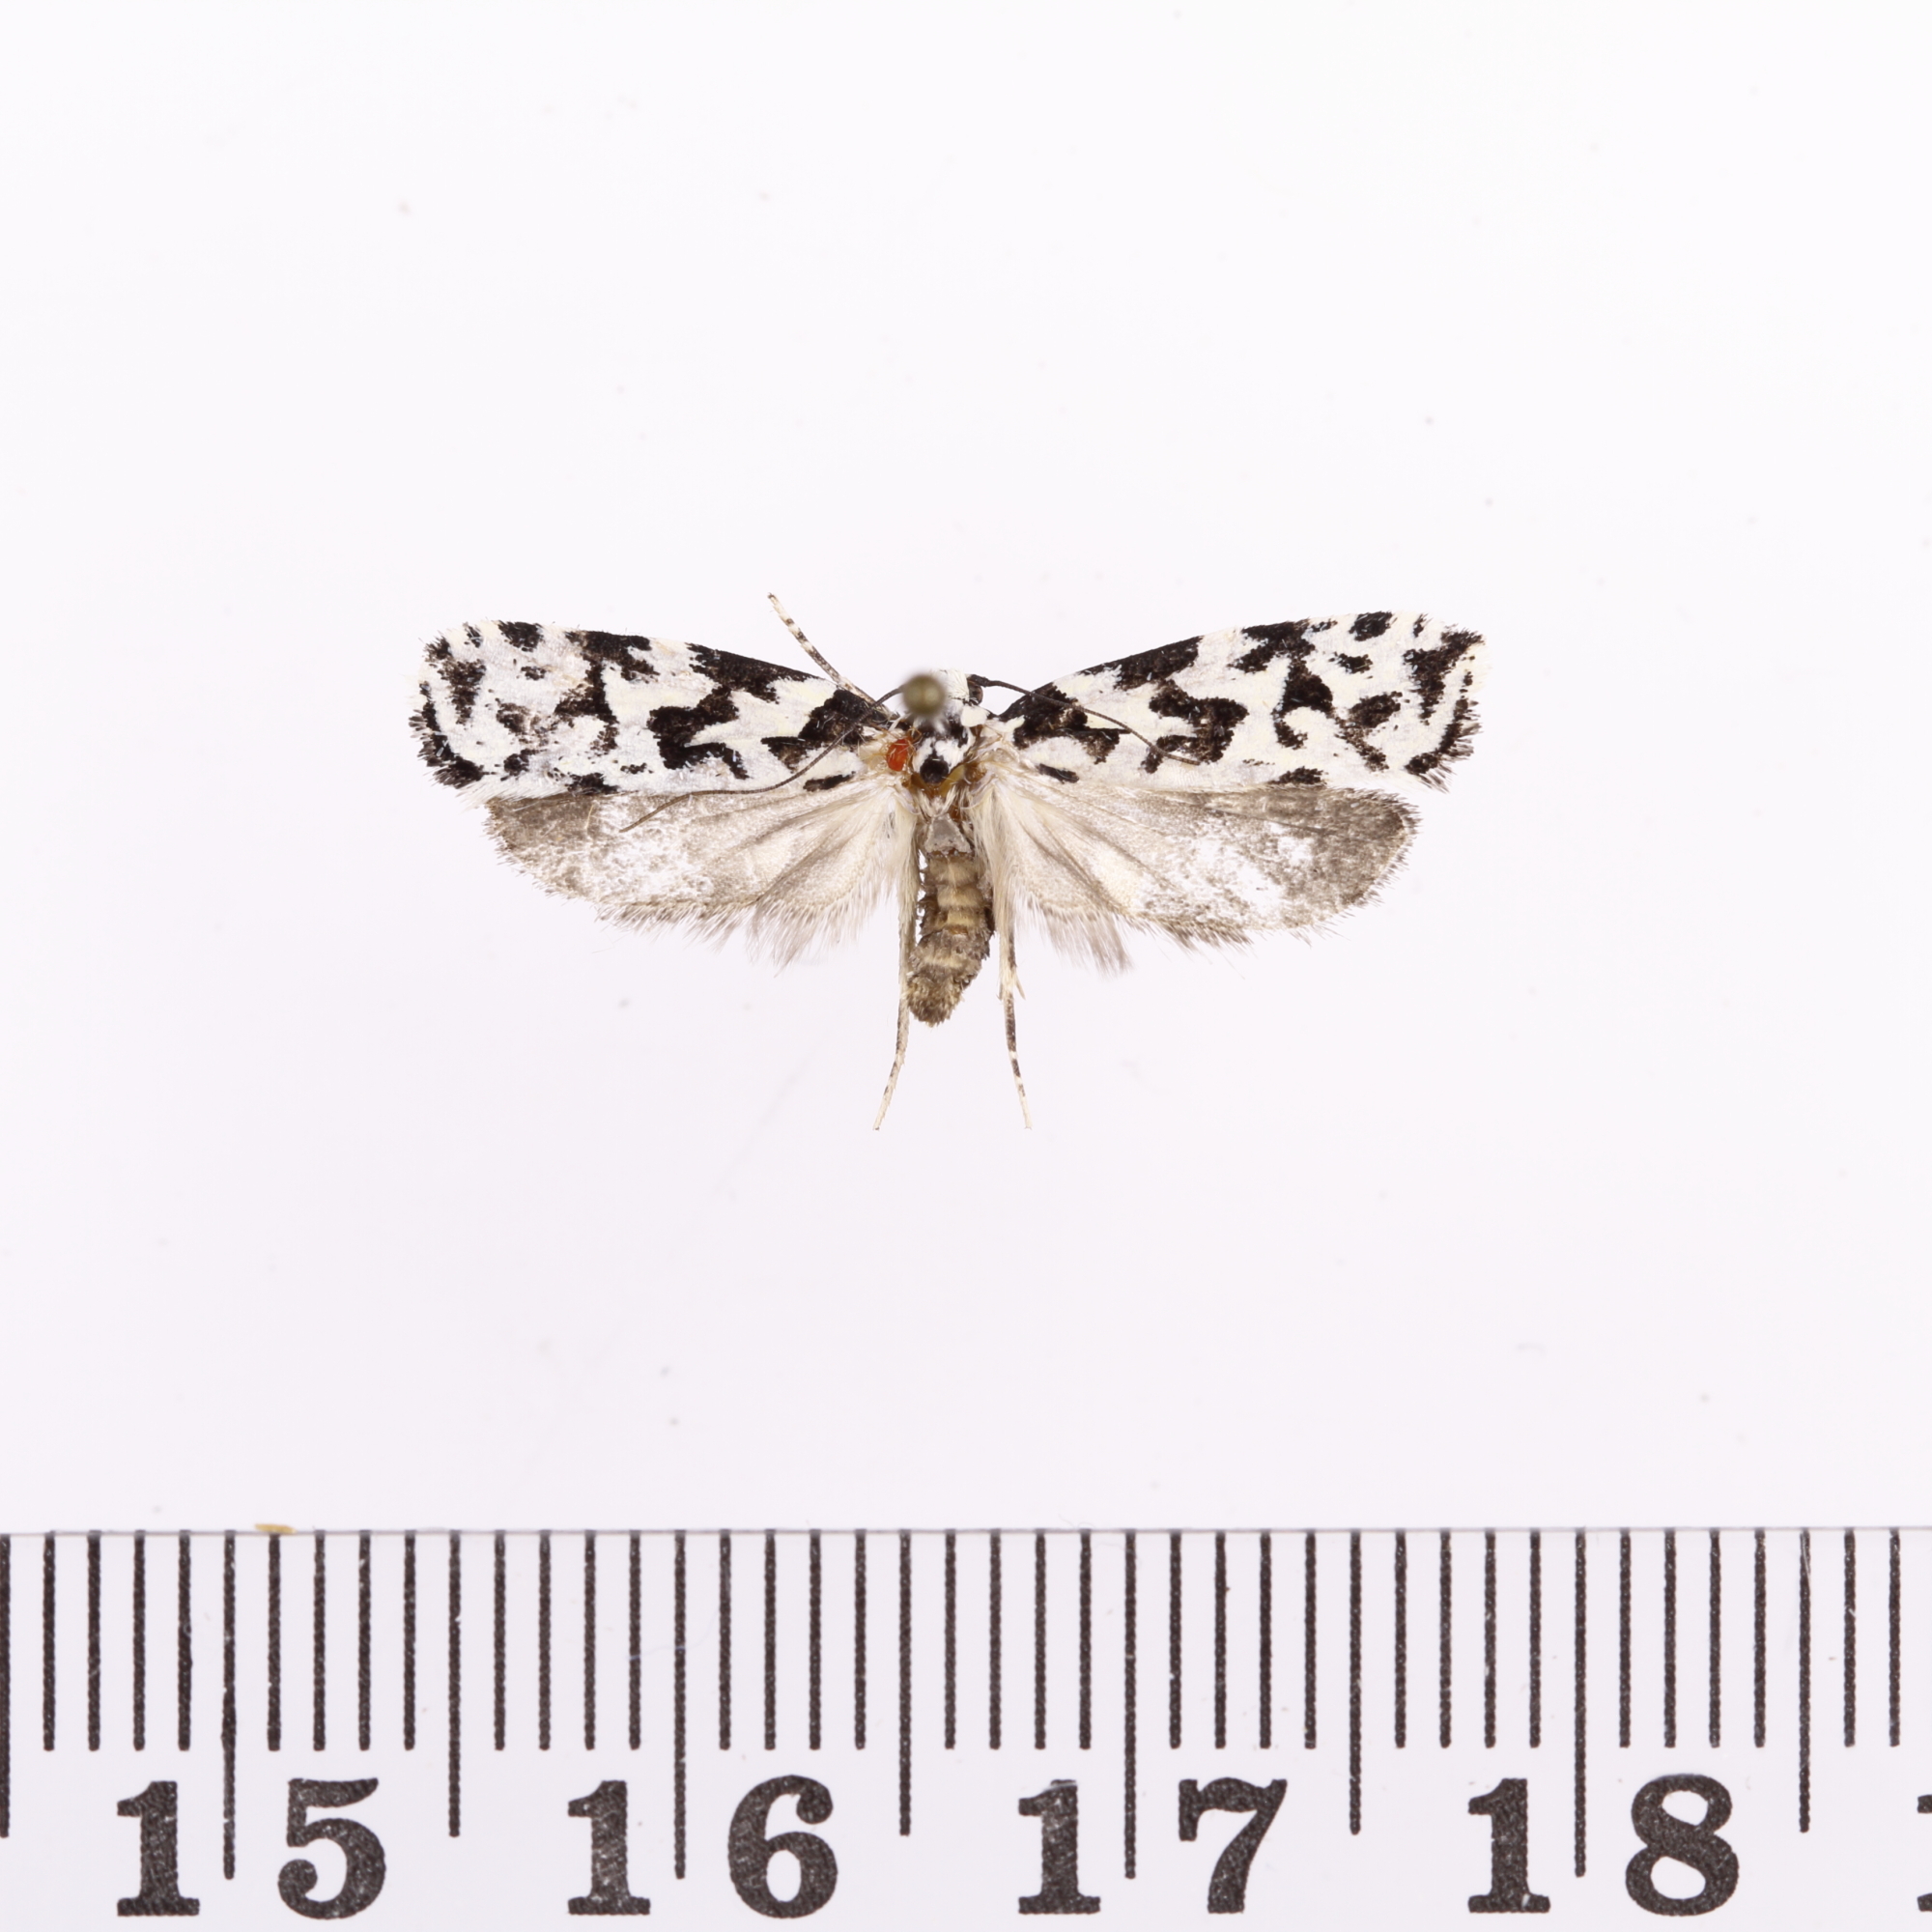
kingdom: Animalia
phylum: Arthropoda
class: Insecta
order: Lepidoptera
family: Oecophoridae
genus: Izatha
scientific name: Izatha
